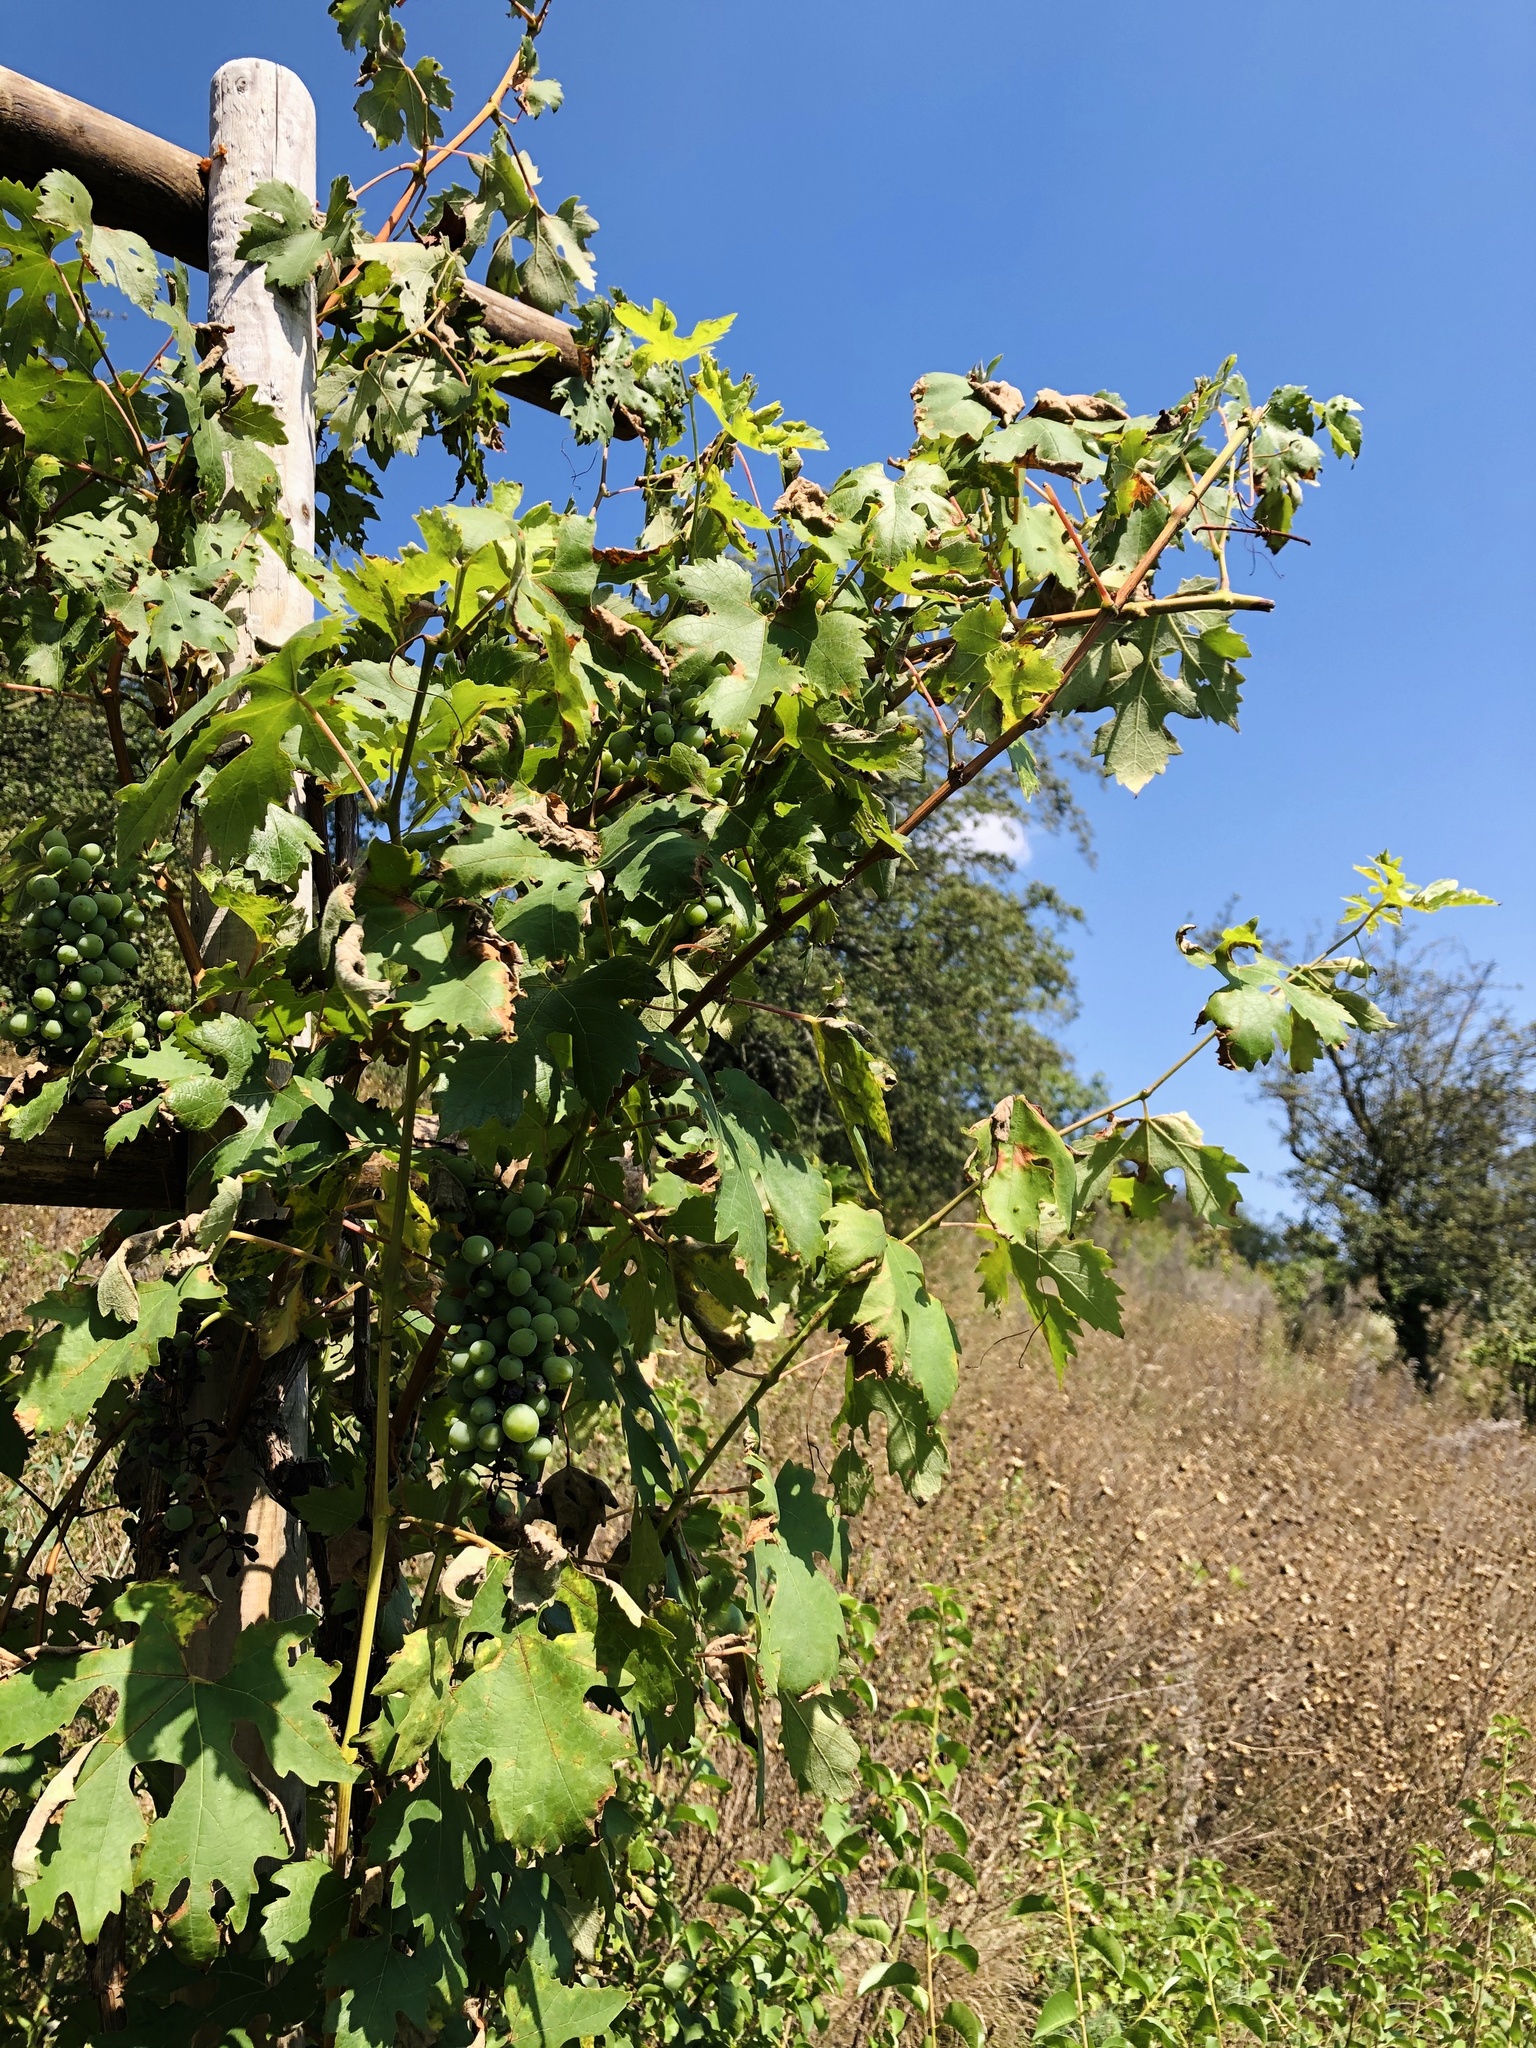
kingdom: Plantae
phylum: Tracheophyta
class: Magnoliopsida
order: Vitales
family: Vitaceae
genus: Vitis
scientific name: Vitis vinifera
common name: Grape-vine
